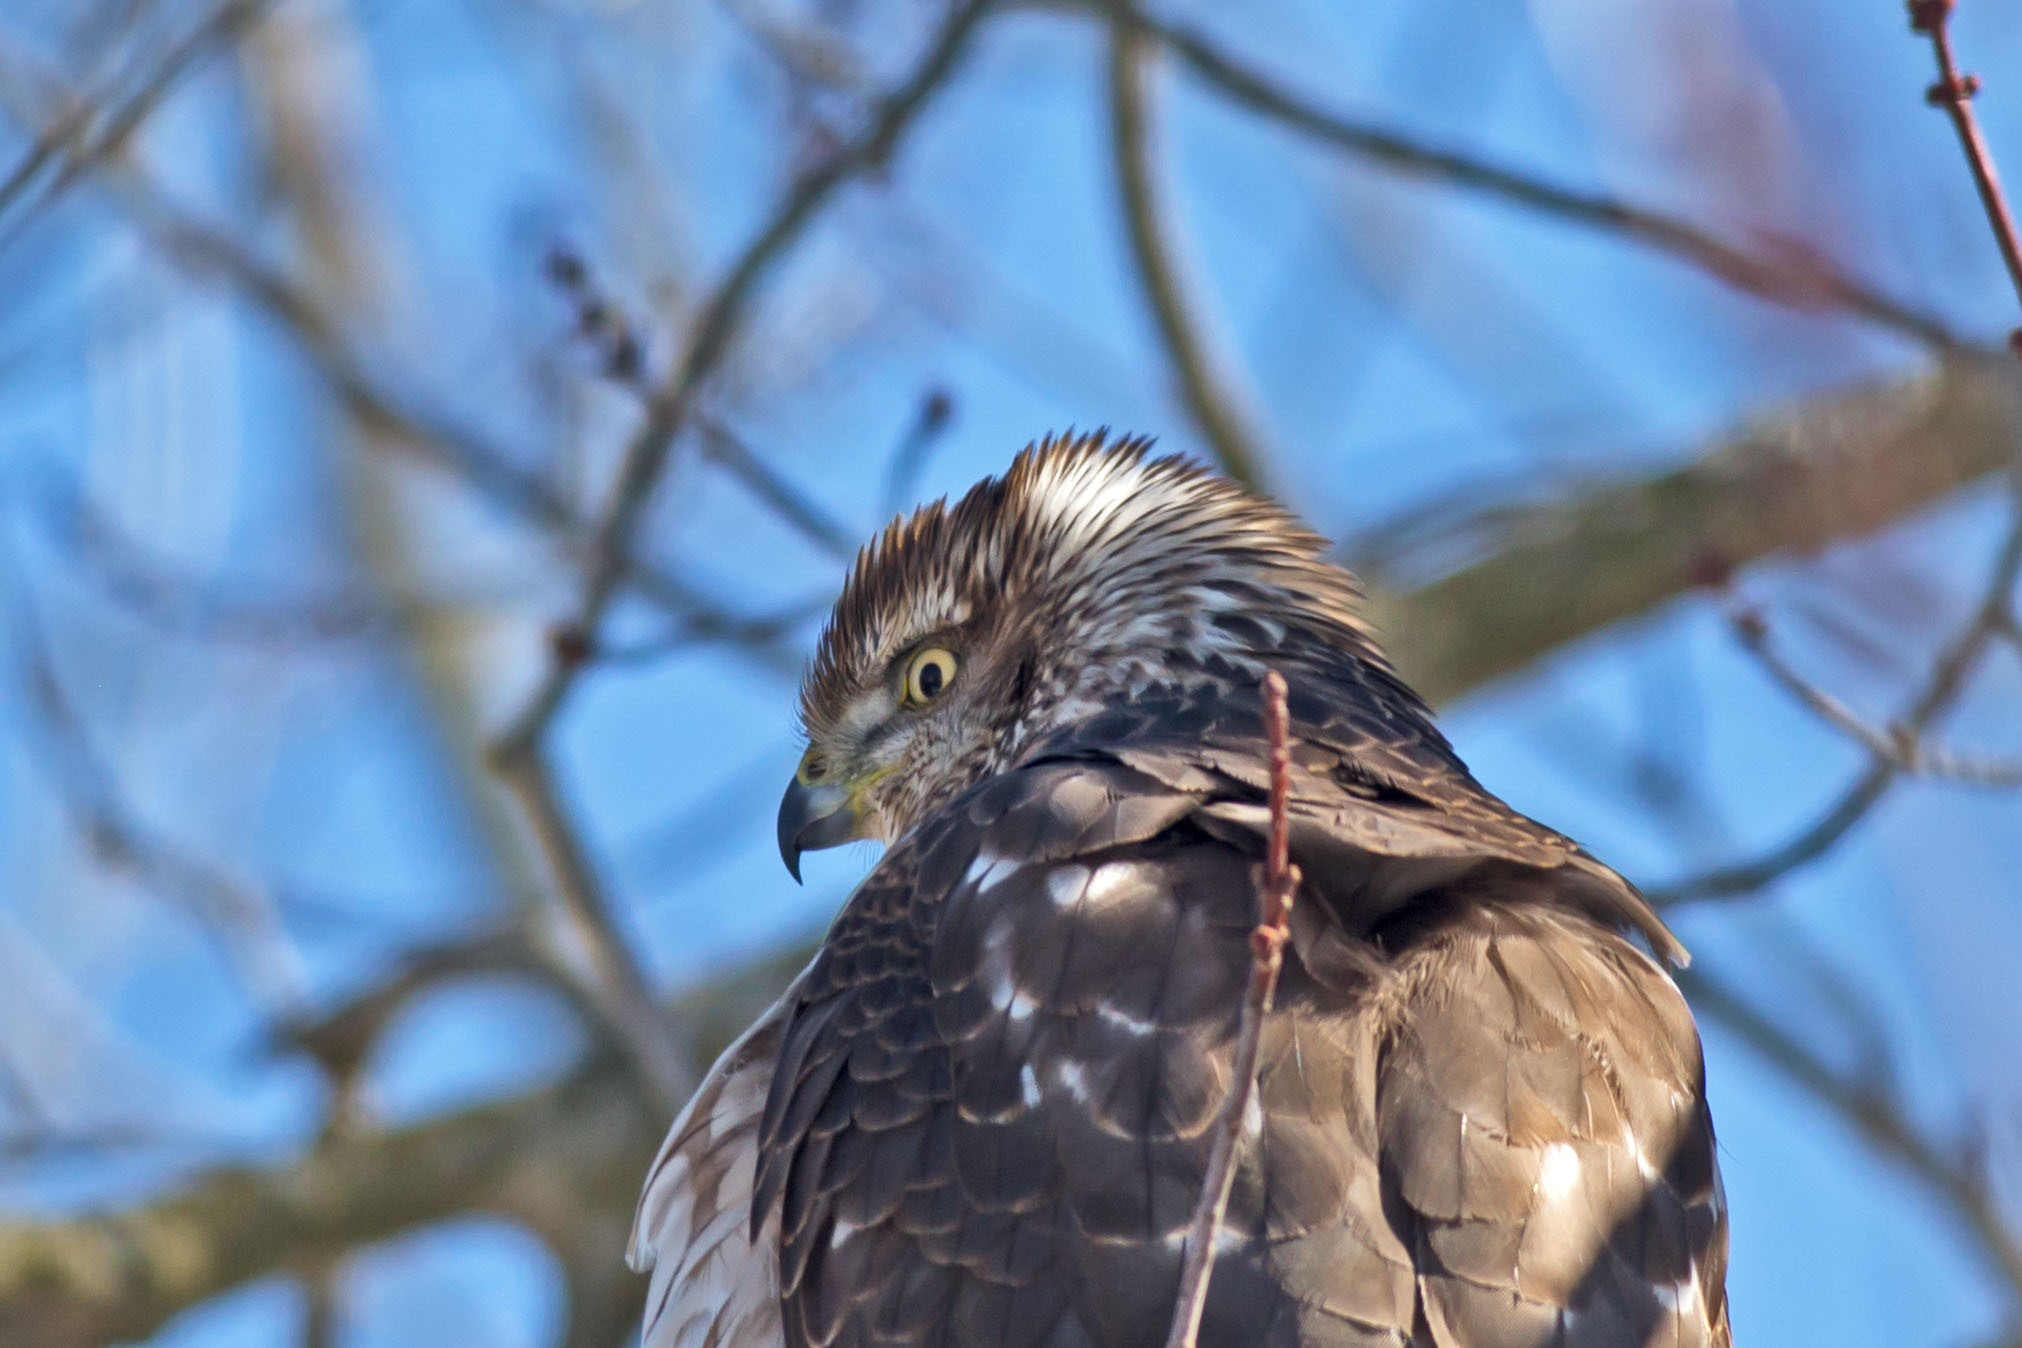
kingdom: Animalia
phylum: Chordata
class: Aves
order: Accipitriformes
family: Accipitridae
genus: Accipiter
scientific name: Accipiter cooperii
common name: Cooper's hawk
